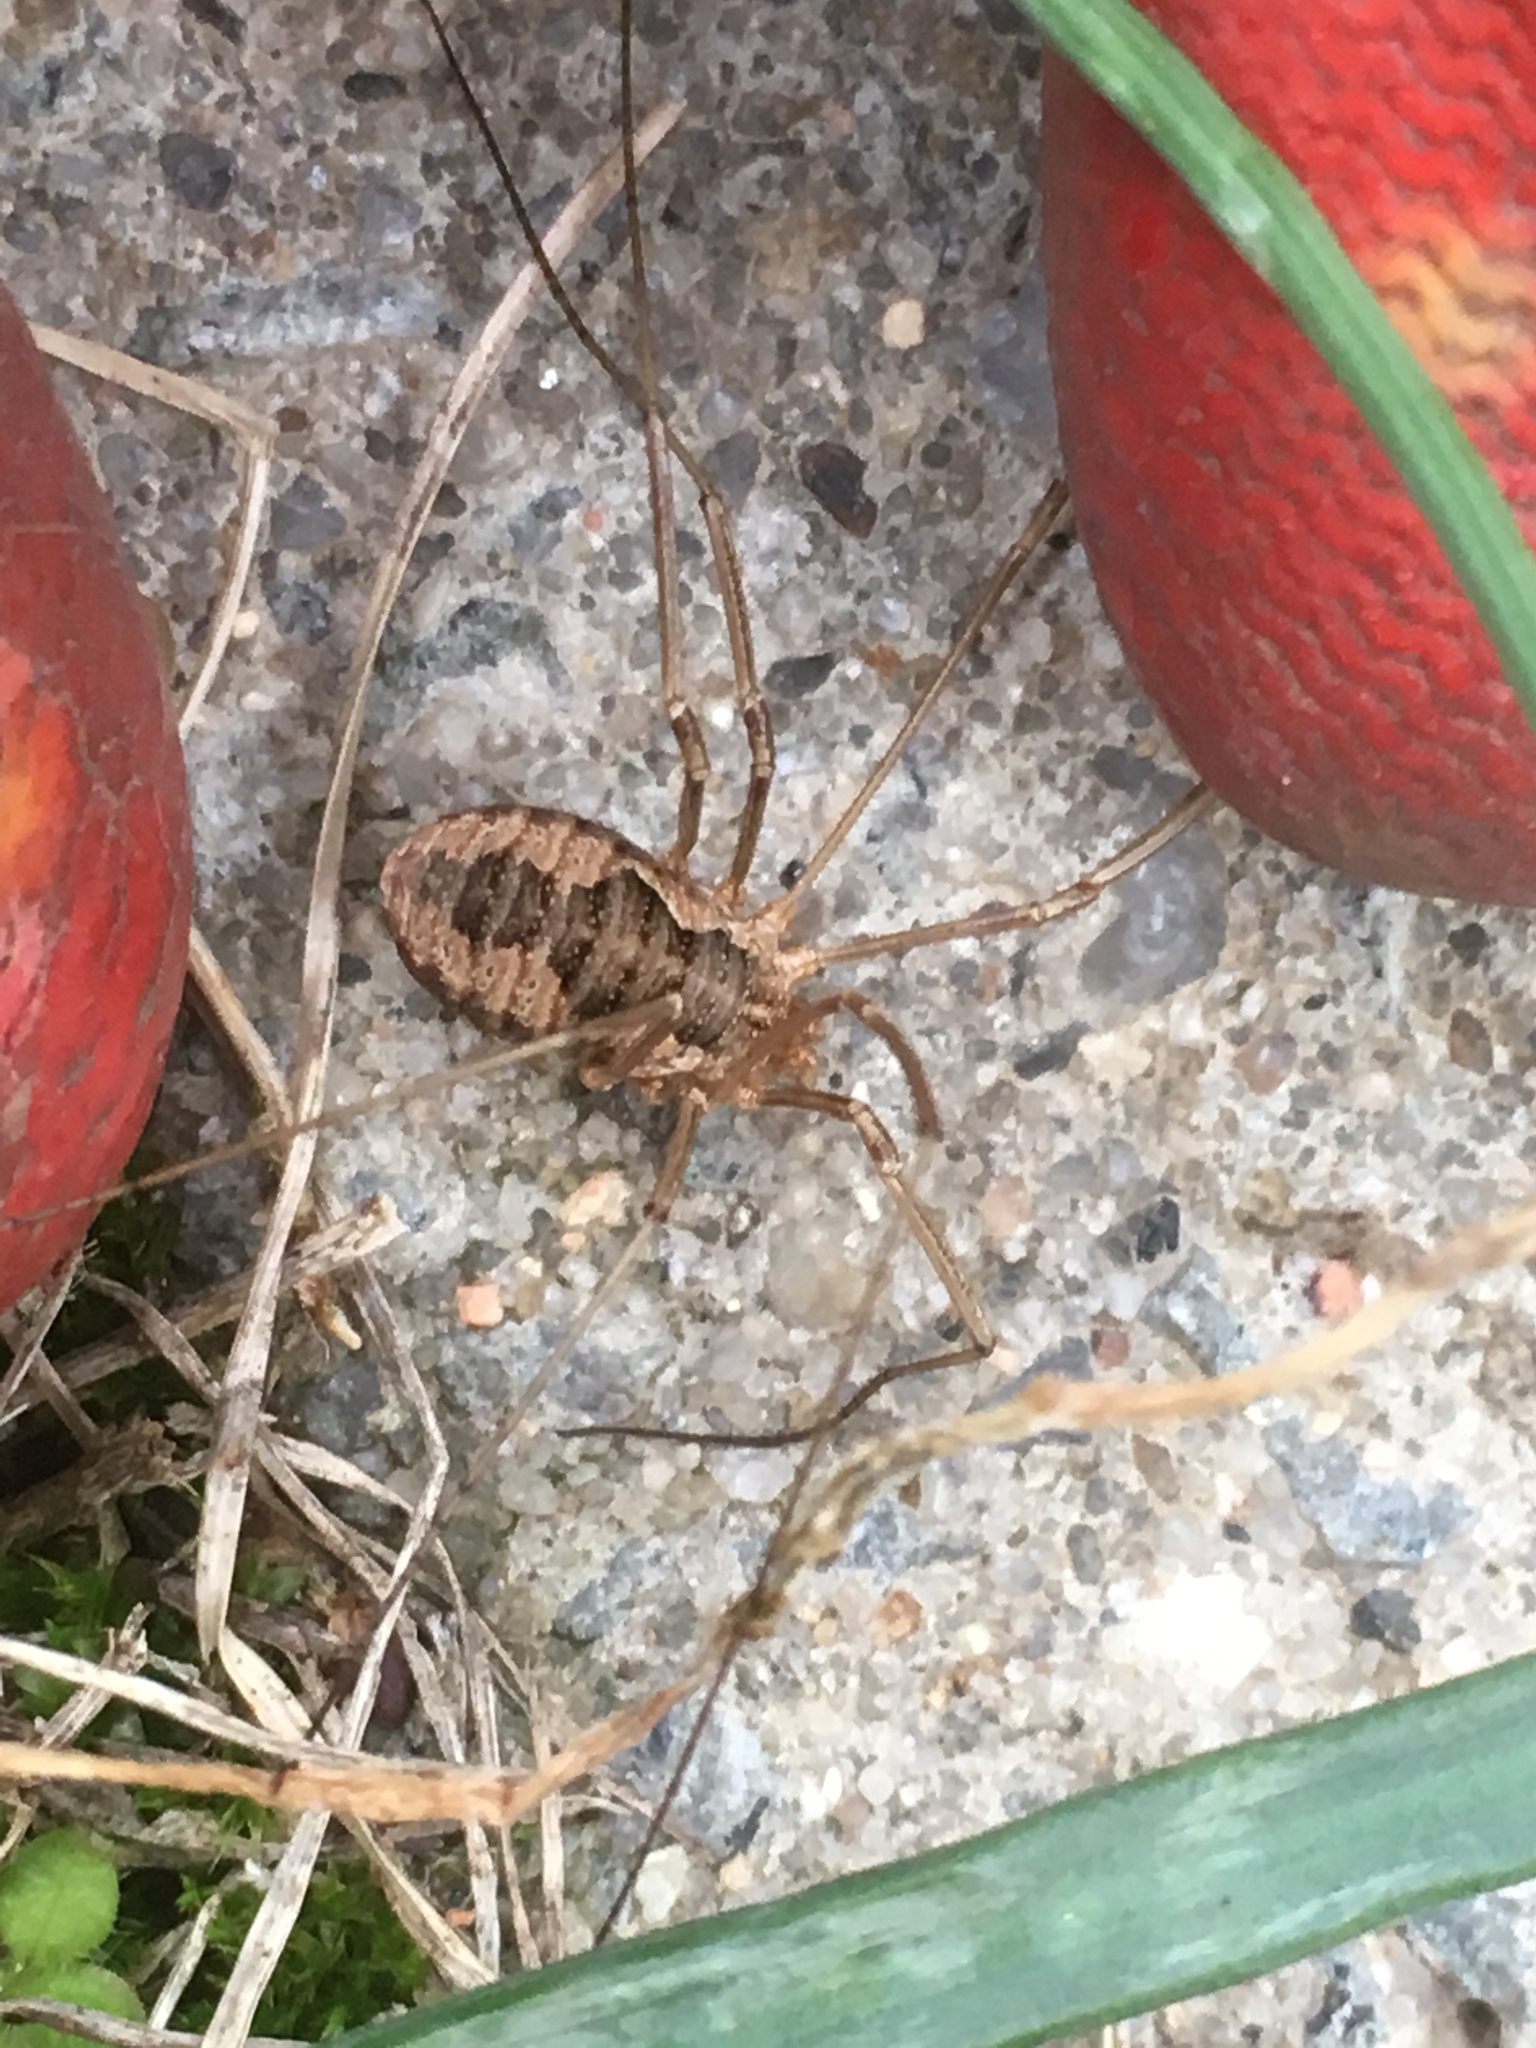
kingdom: Animalia
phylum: Arthropoda
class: Arachnida
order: Opiliones
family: Phalangiidae
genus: Phalangium
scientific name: Phalangium opilio
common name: Daddy longleg
